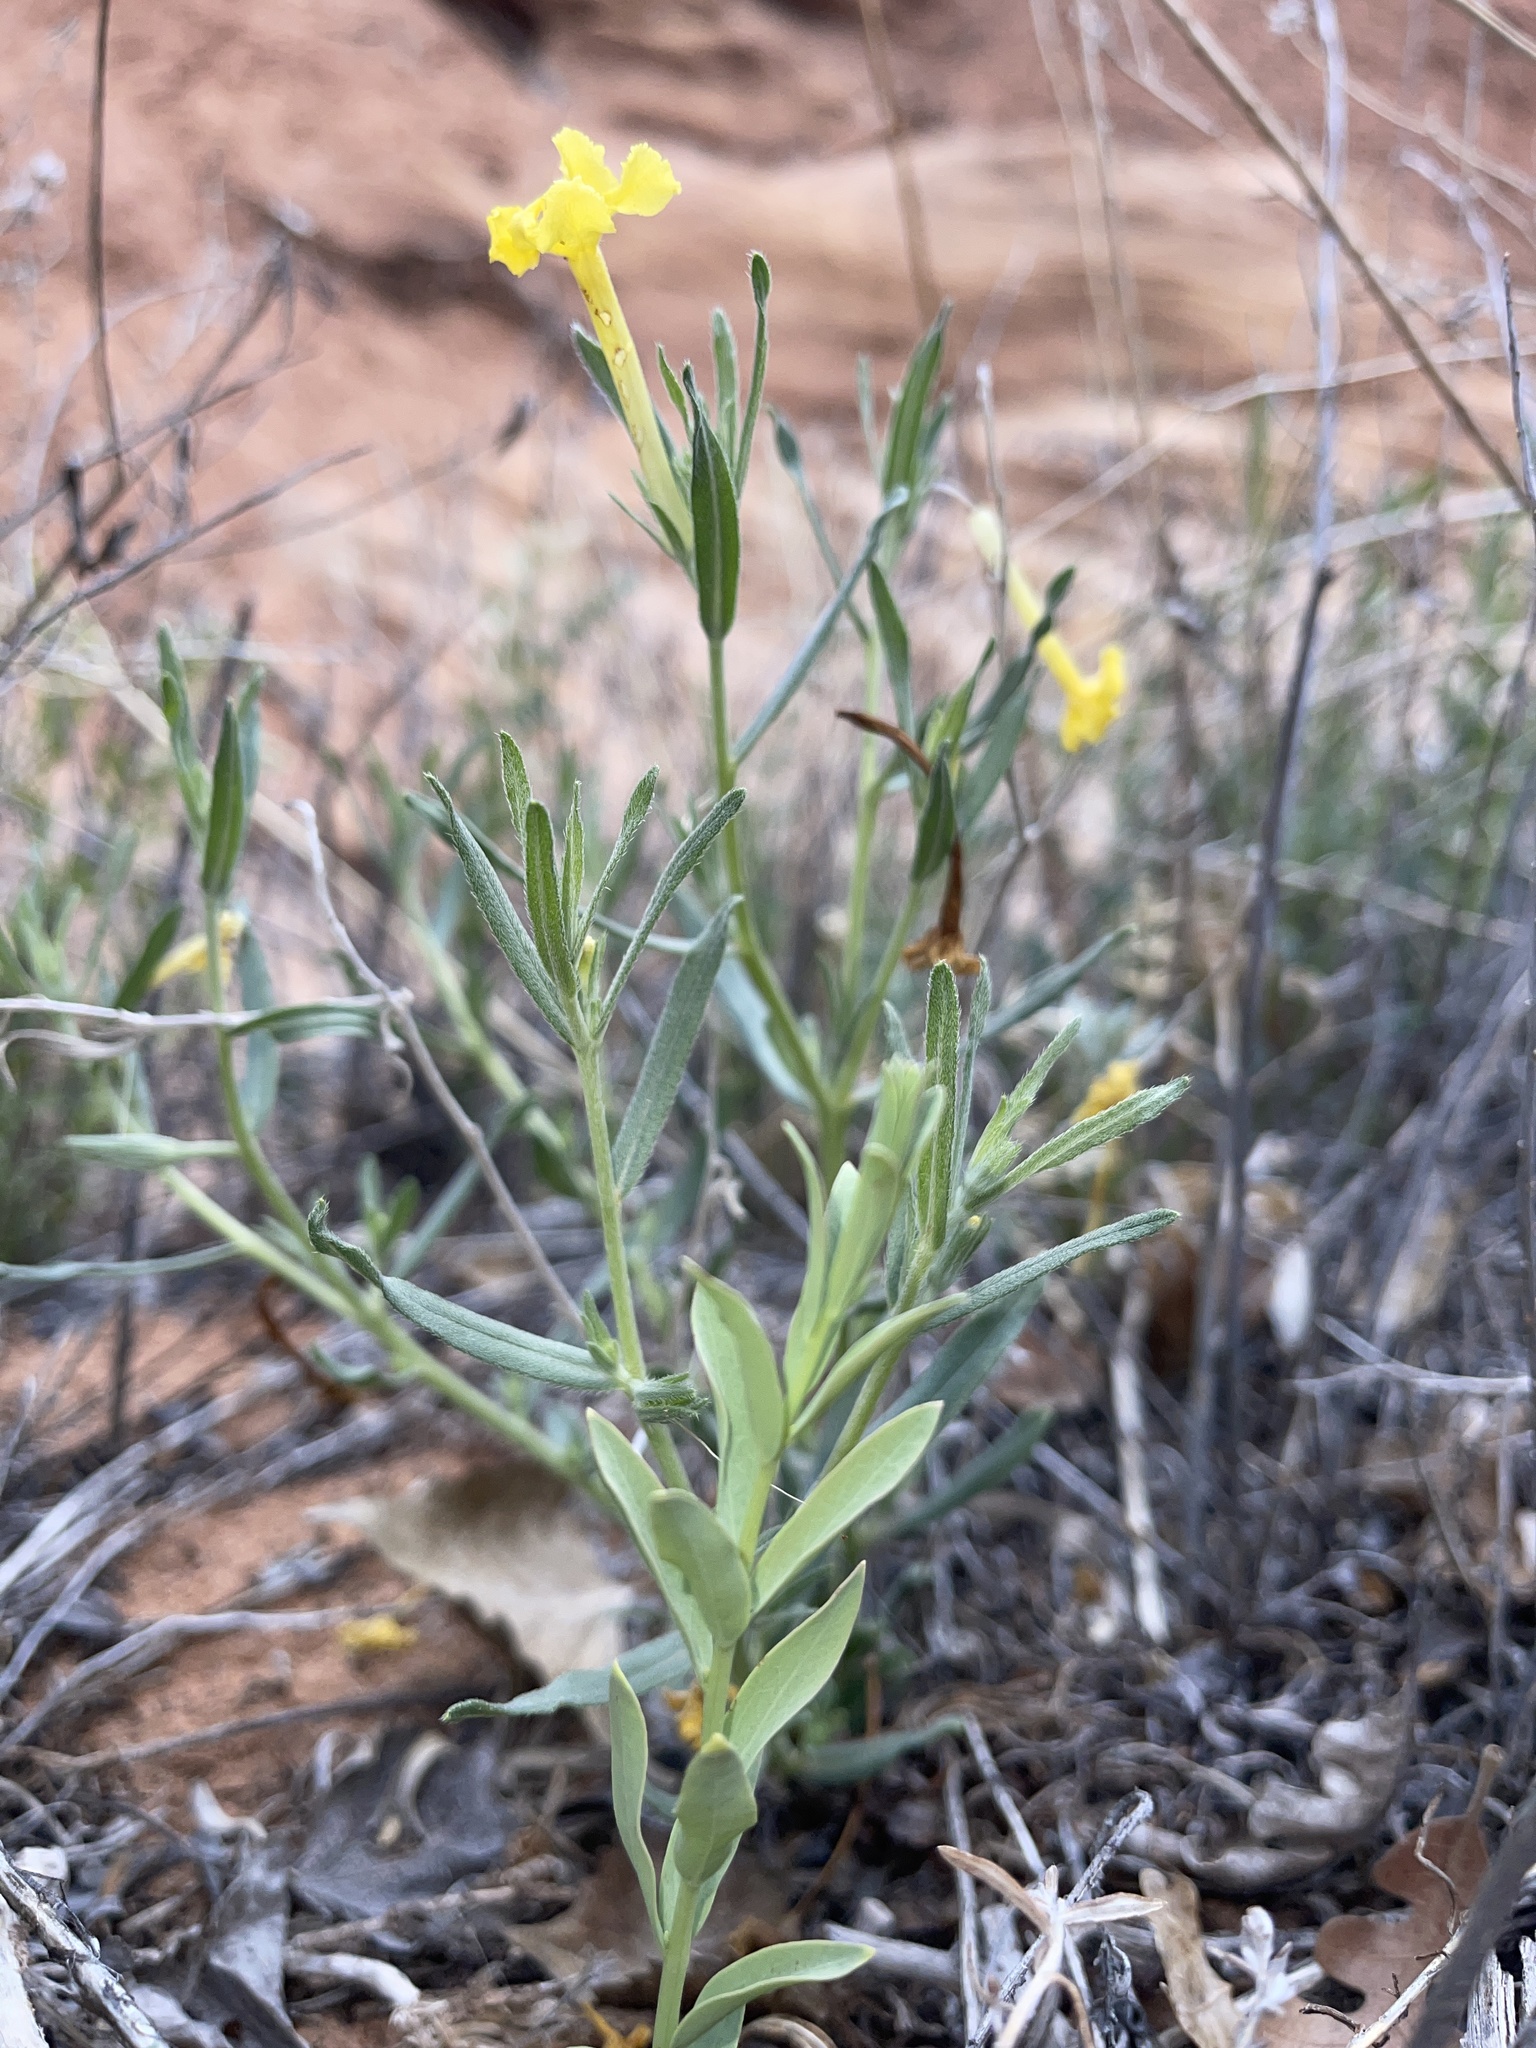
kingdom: Plantae
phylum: Tracheophyta
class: Magnoliopsida
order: Boraginales
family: Boraginaceae
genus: Lithospermum
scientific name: Lithospermum incisum
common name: Fringed gromwell
